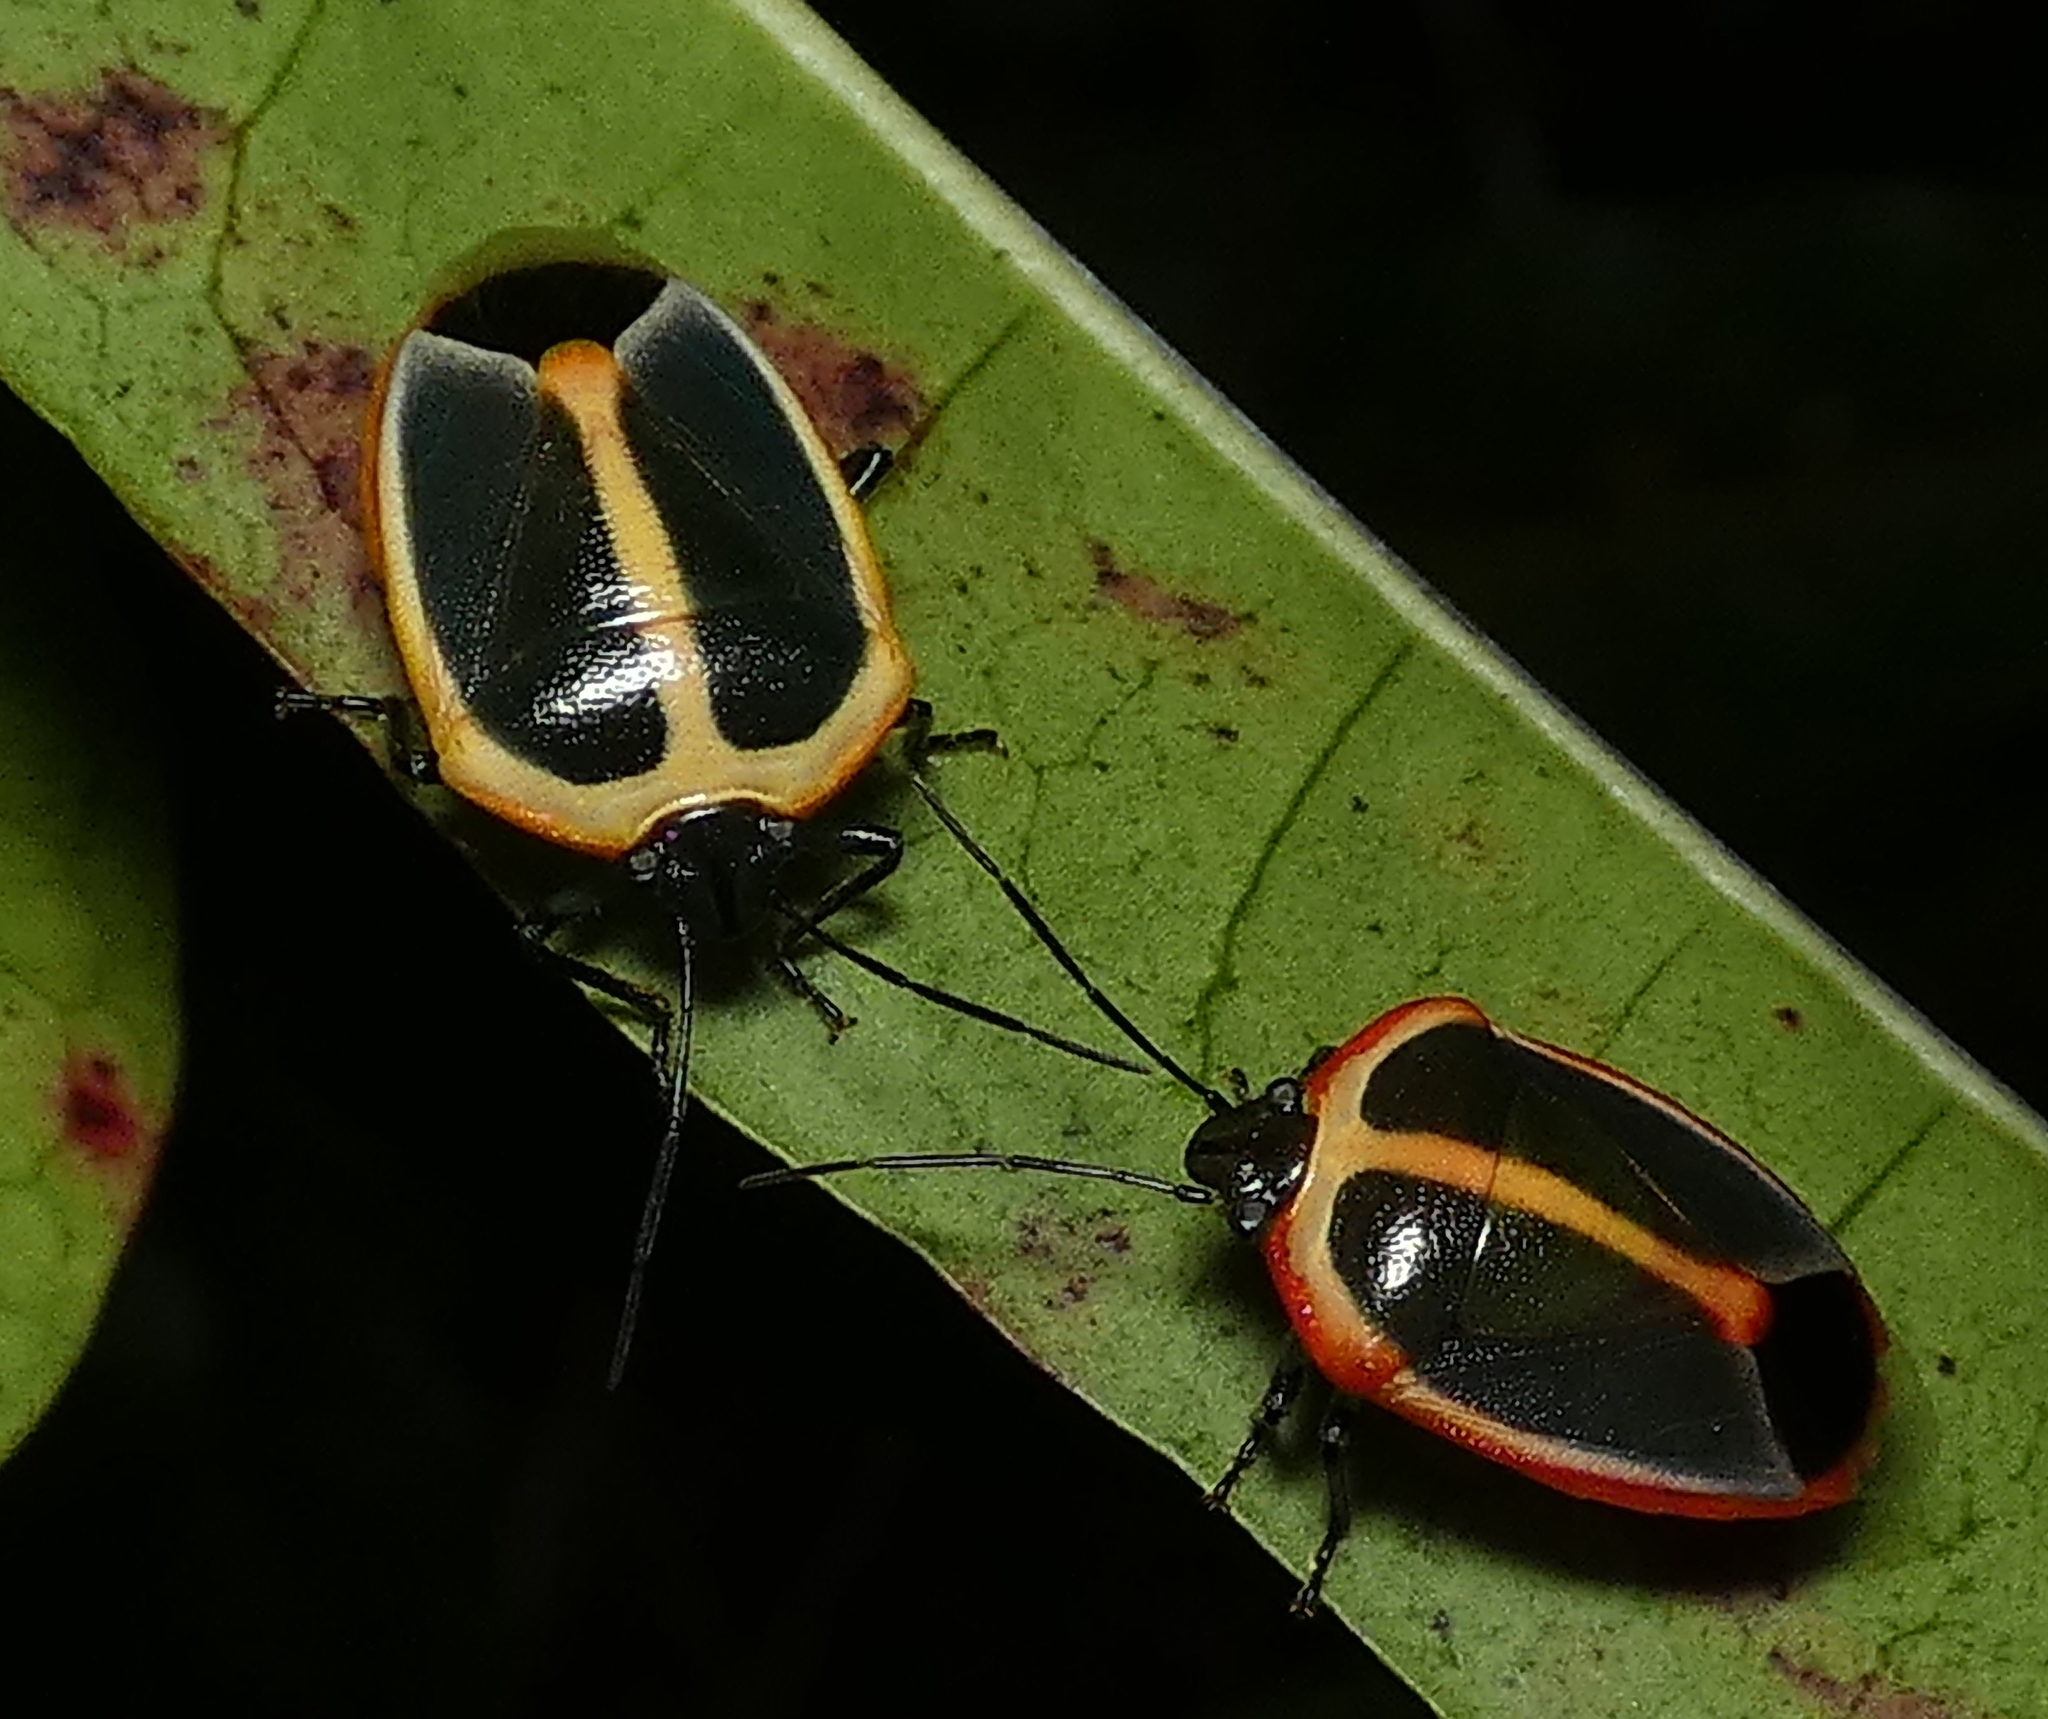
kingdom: Animalia
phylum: Arthropoda
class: Insecta
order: Hemiptera
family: Pentatomidae
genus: Roferta
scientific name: Roferta marginalis
